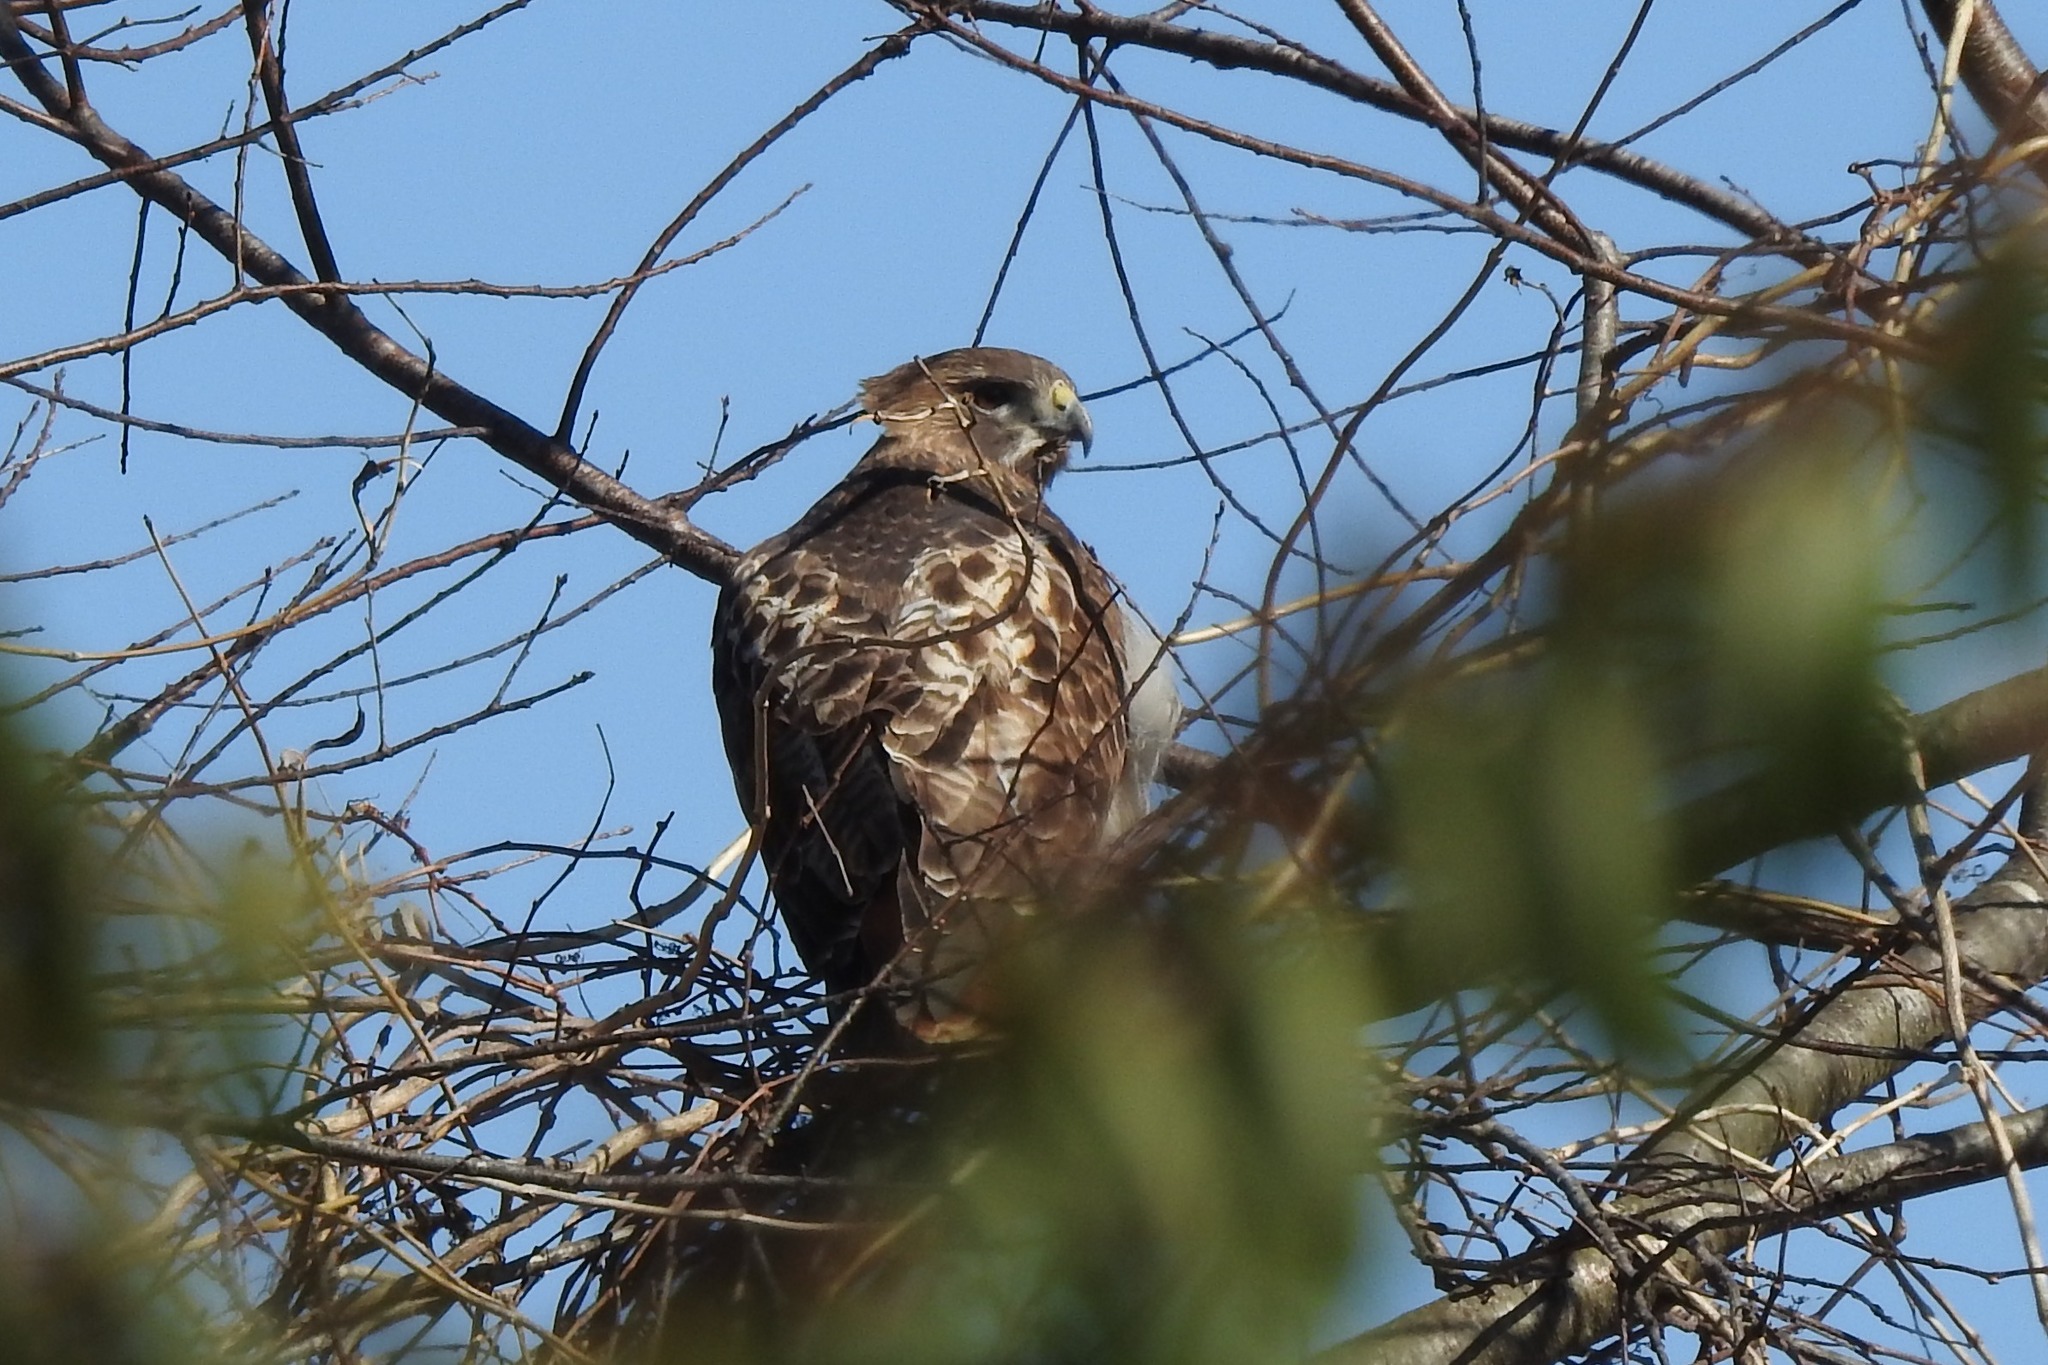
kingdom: Animalia
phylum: Chordata
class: Aves
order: Accipitriformes
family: Accipitridae
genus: Buteo
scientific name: Buteo jamaicensis
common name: Red-tailed hawk
